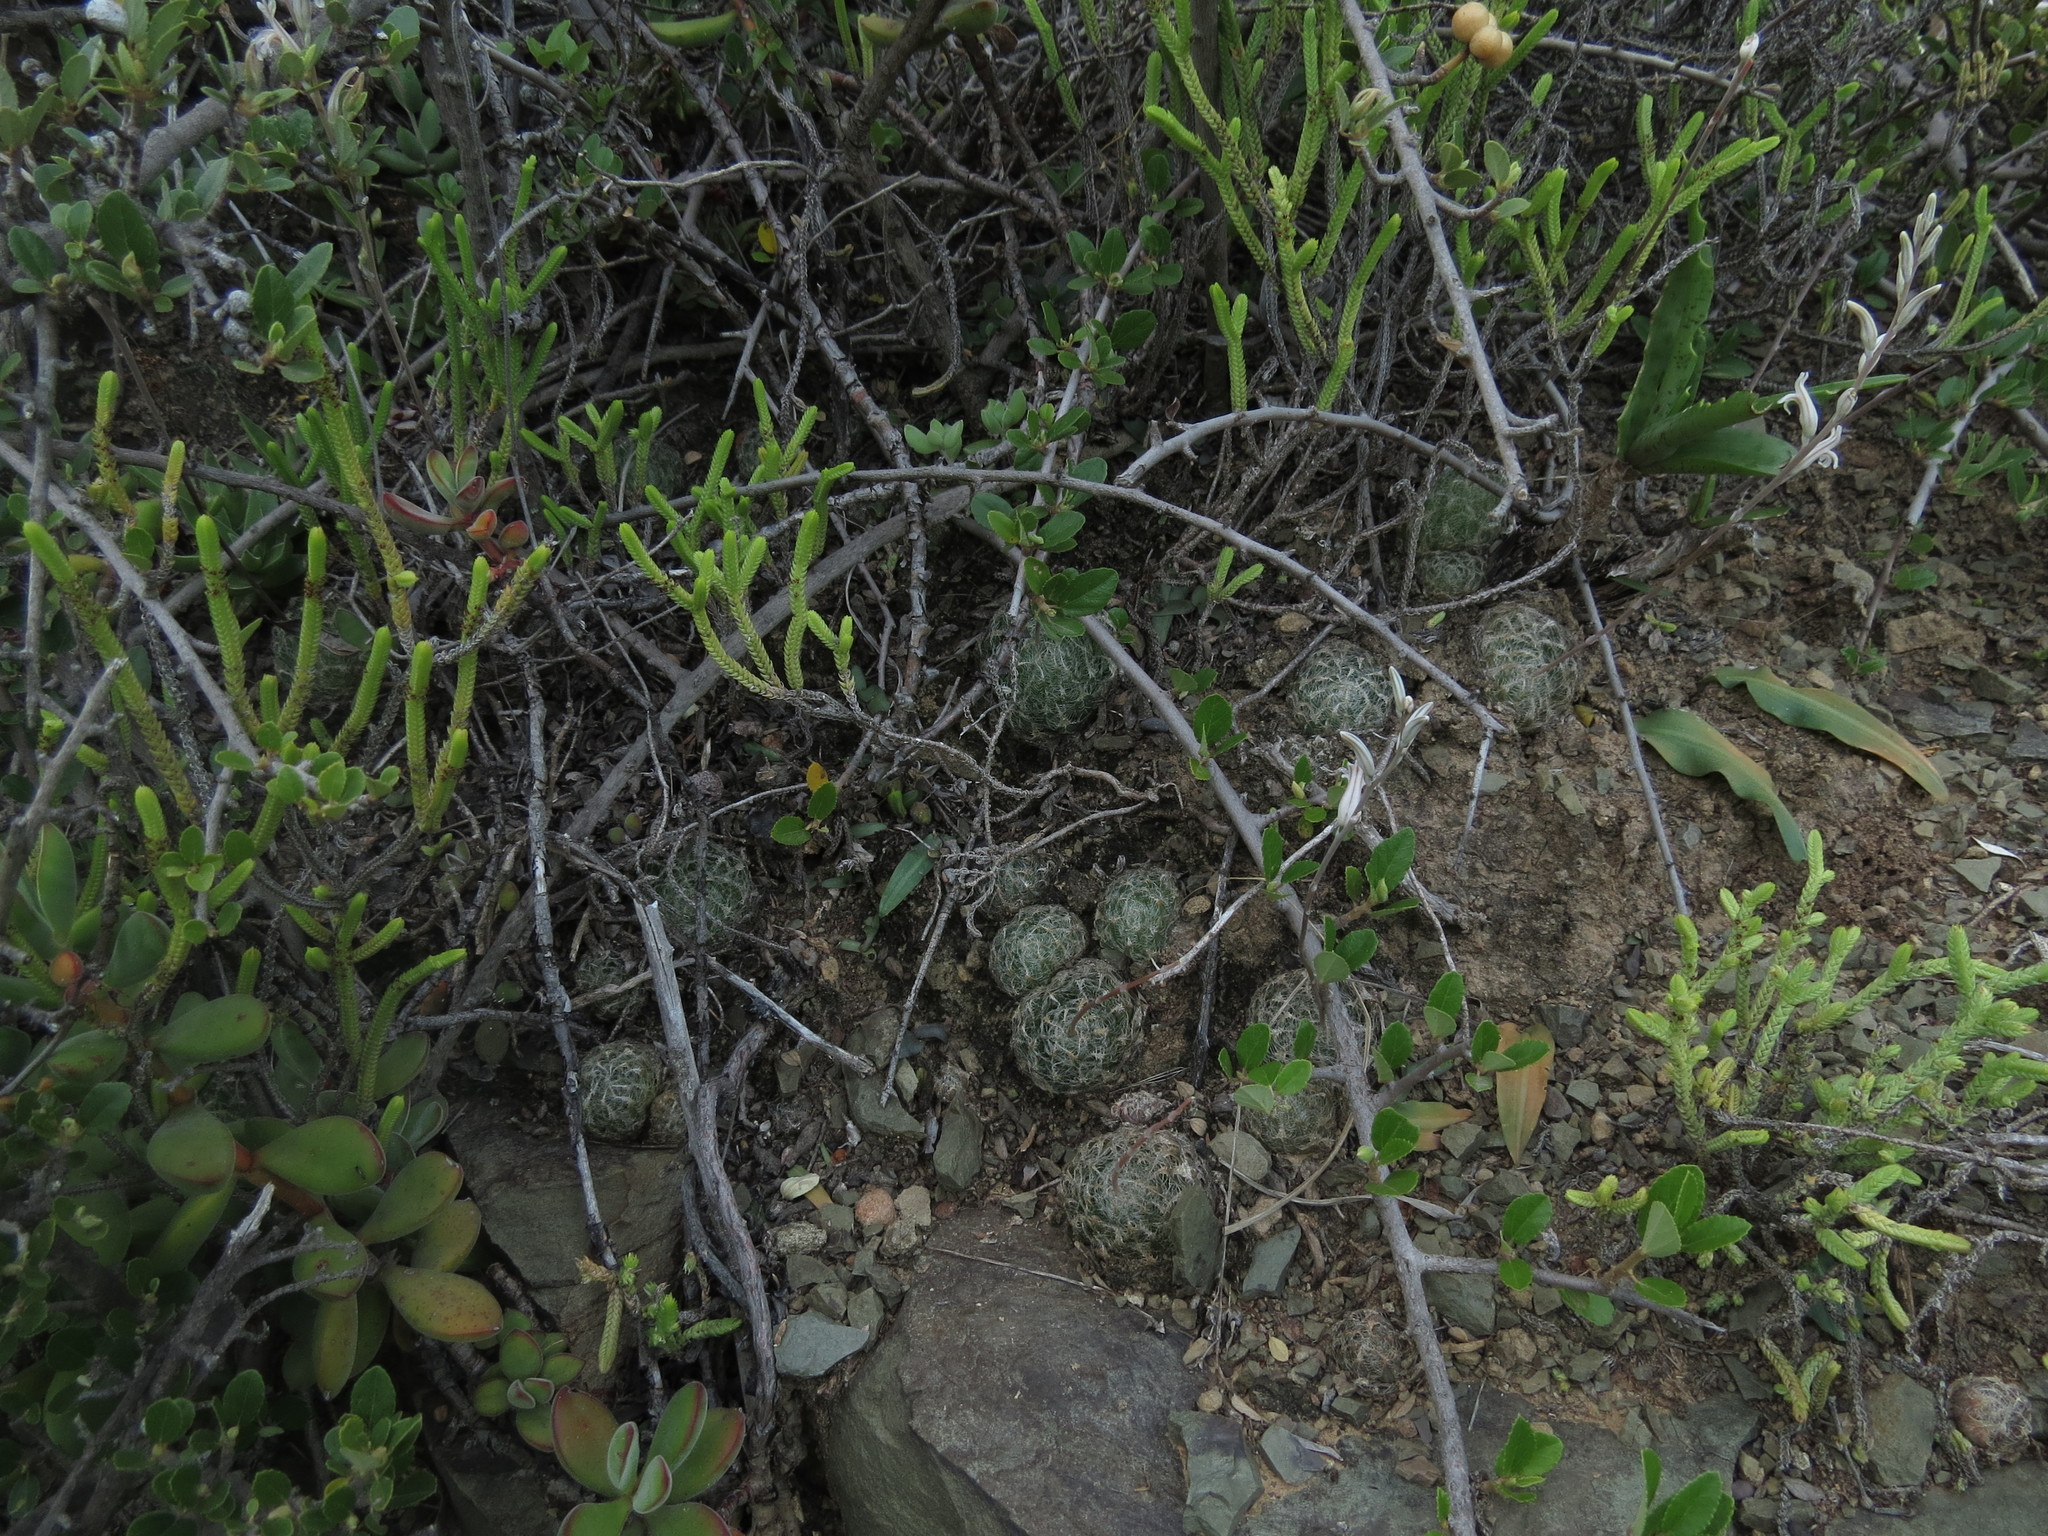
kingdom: Plantae
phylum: Tracheophyta
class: Liliopsida
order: Asparagales
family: Asphodelaceae
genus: Haworthia
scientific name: Haworthia bolusii
